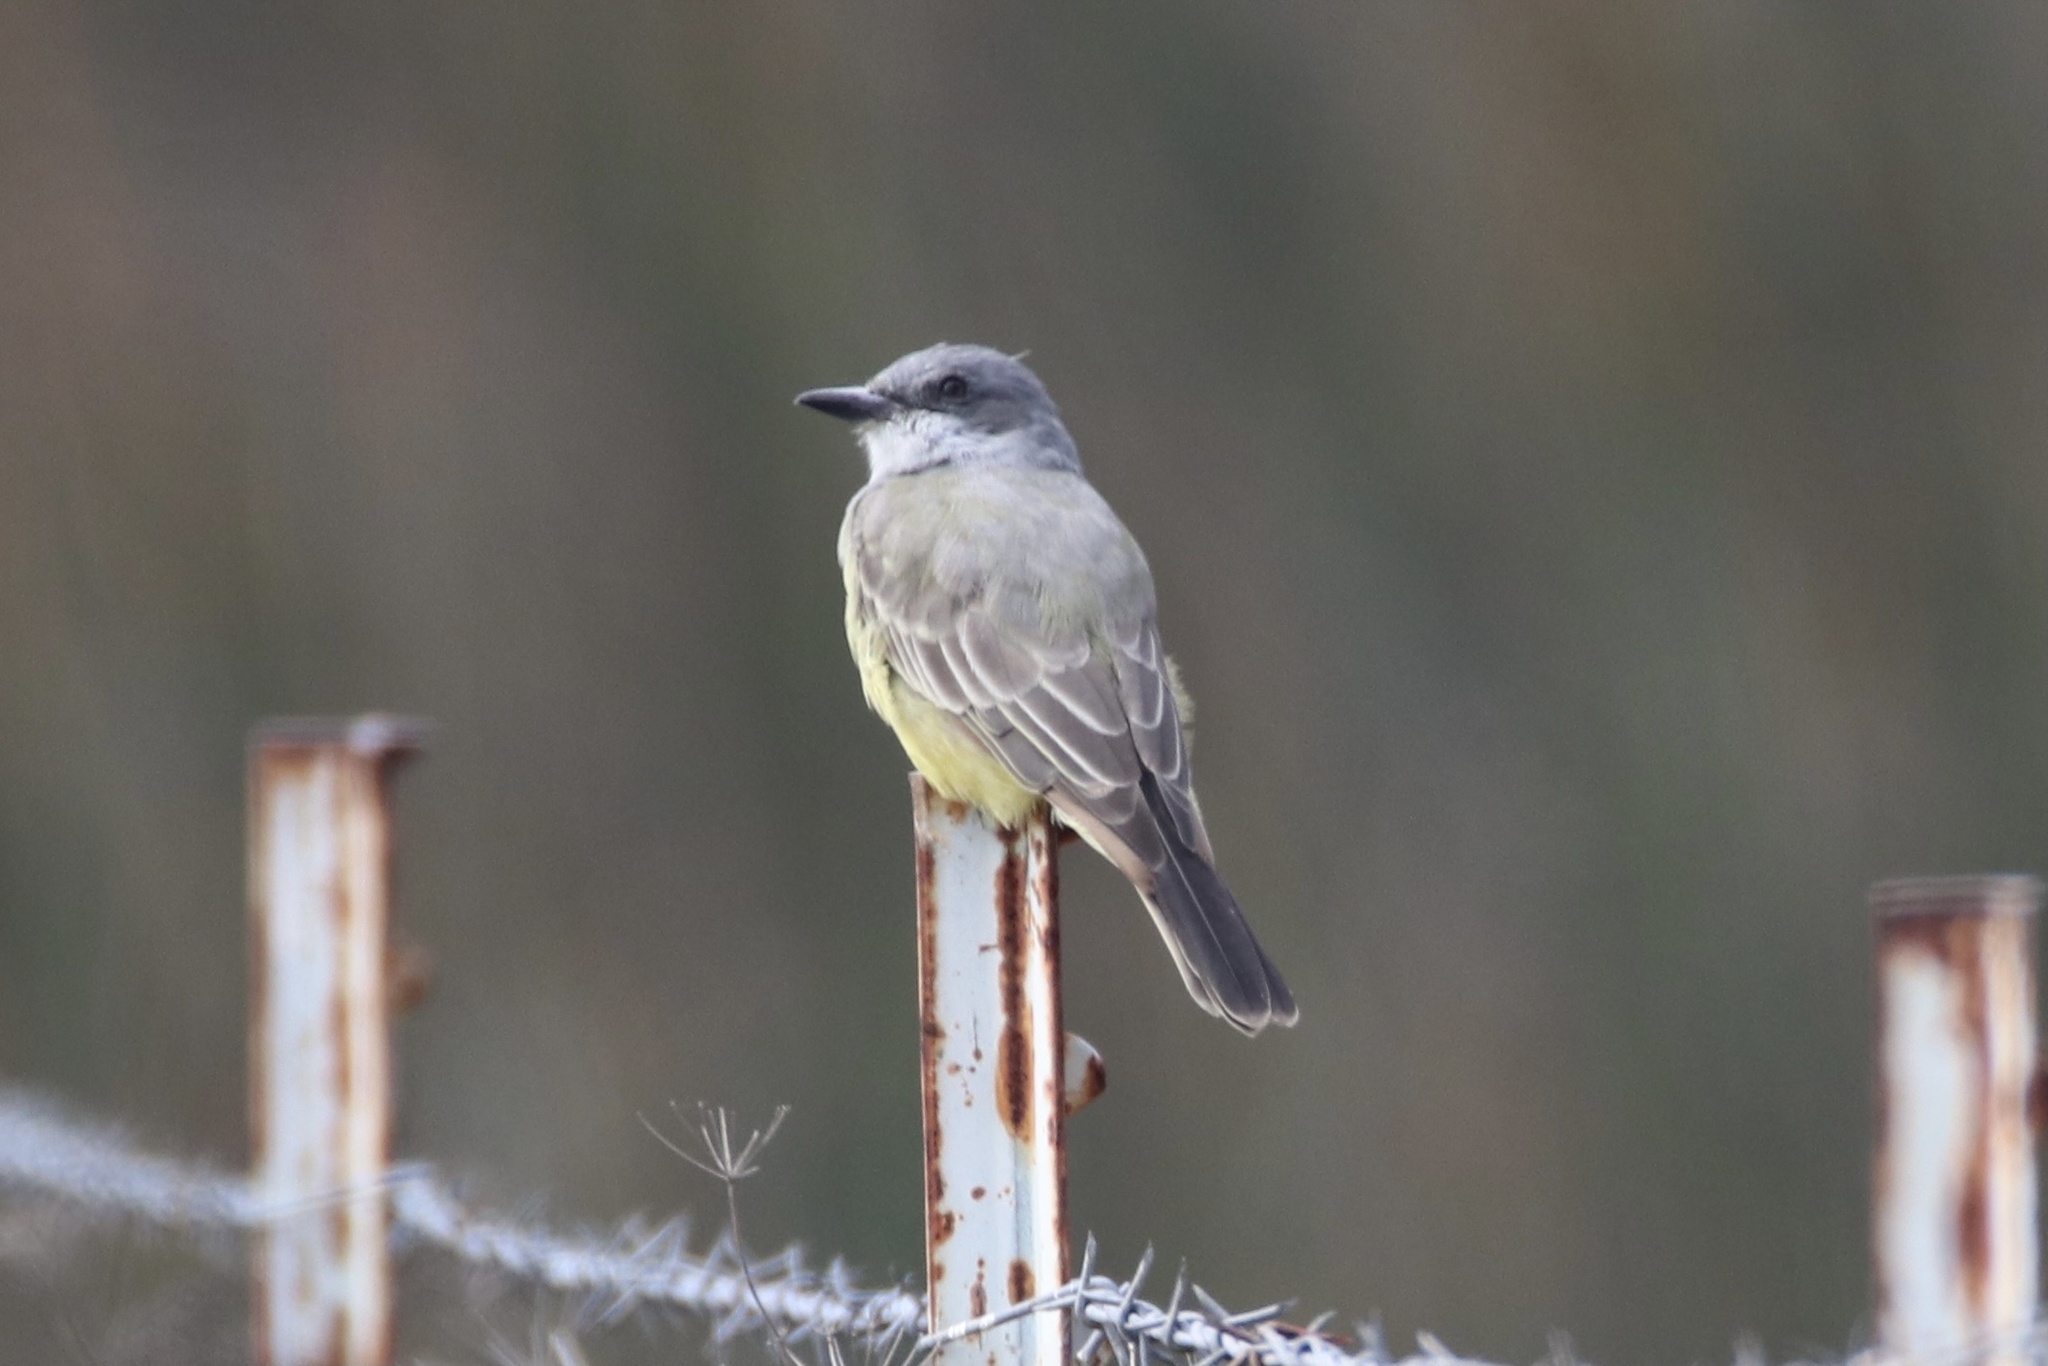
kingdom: Animalia
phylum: Chordata
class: Aves
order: Passeriformes
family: Tyrannidae
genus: Tyrannus
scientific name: Tyrannus vociferans
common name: Cassin's kingbird
